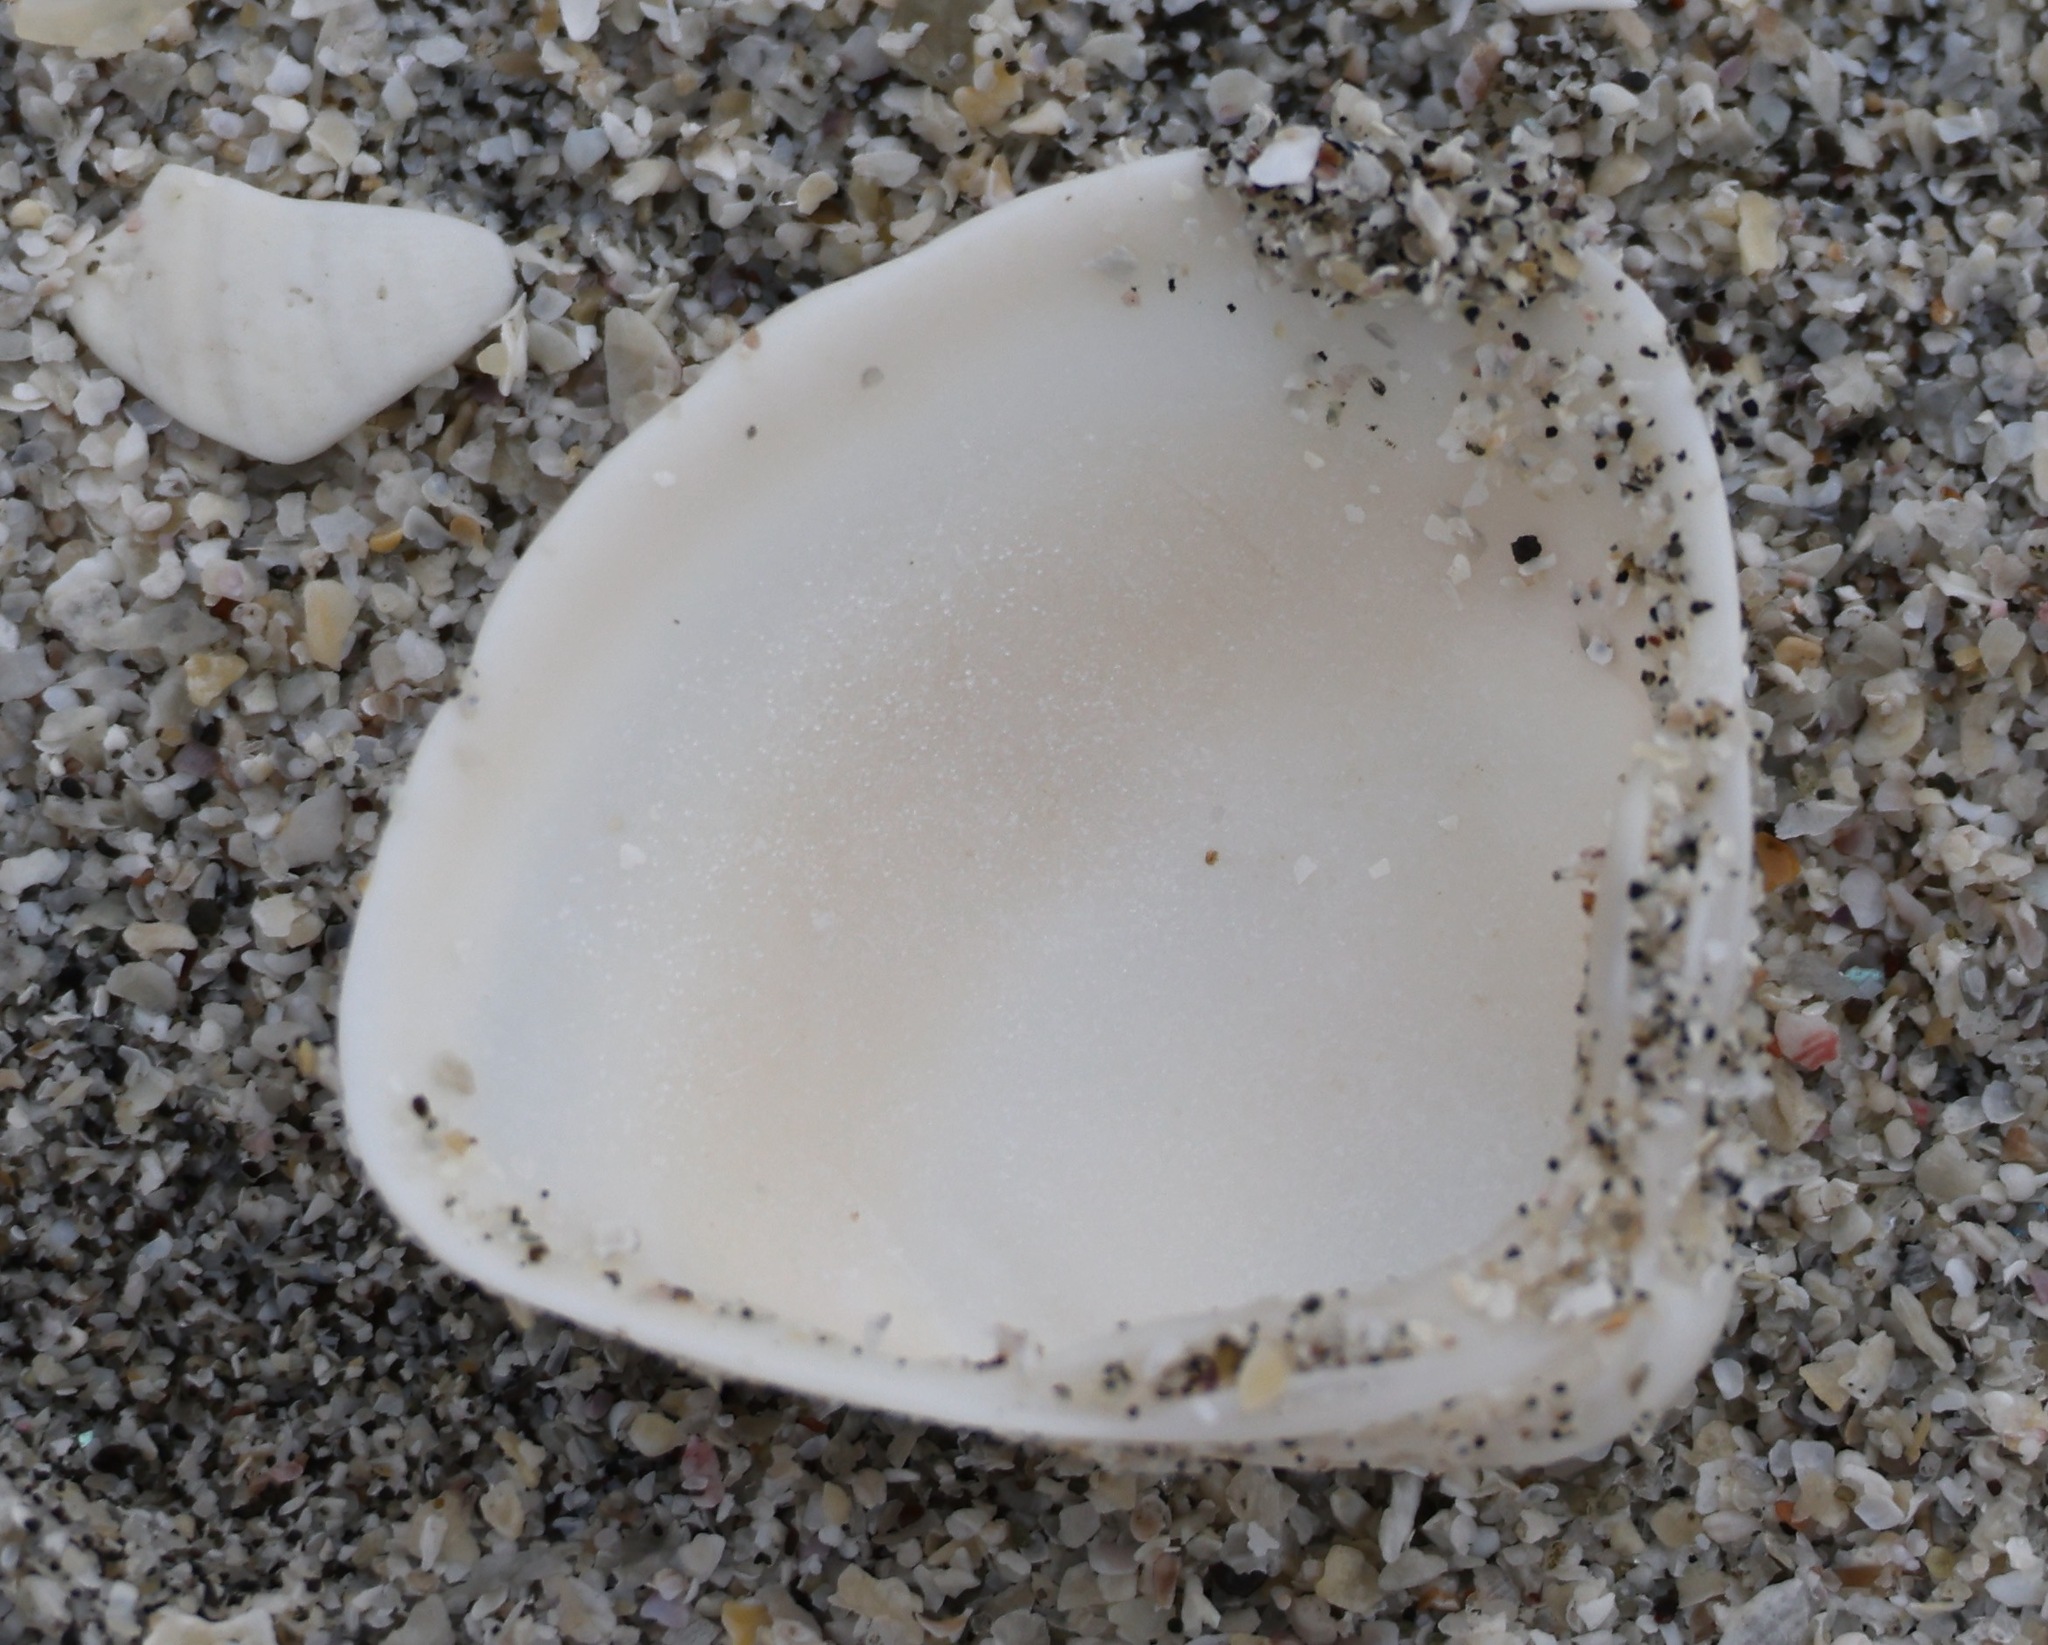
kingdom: Animalia
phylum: Mollusca
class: Bivalvia
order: Venerida
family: Mactridae
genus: Spisula
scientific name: Spisula subtruncata
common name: Cut trough shell
